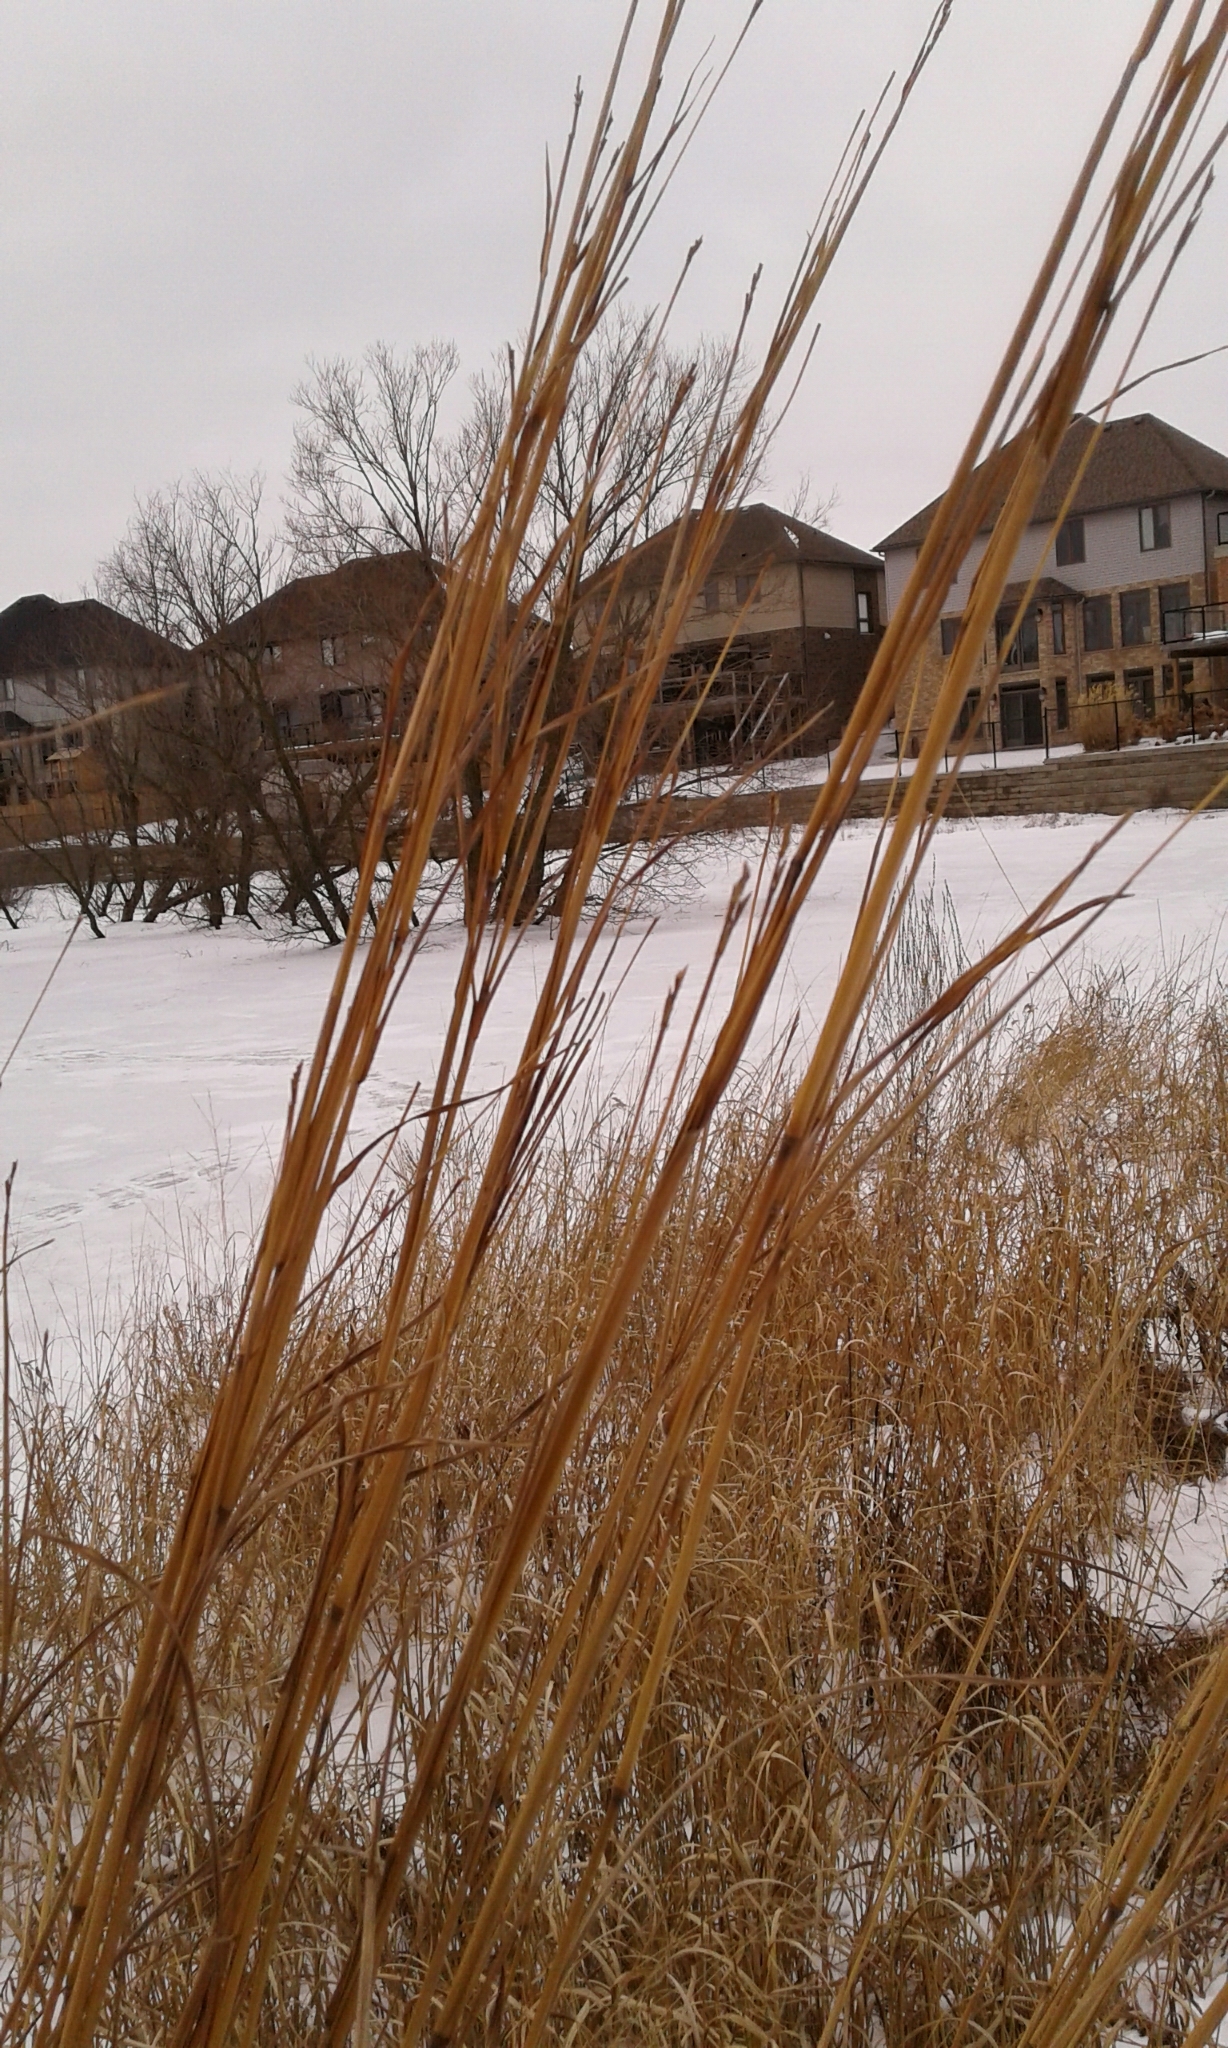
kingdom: Plantae
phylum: Tracheophyta
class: Liliopsida
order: Poales
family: Poaceae
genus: Andropogon
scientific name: Andropogon gerardi
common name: Big bluestem
